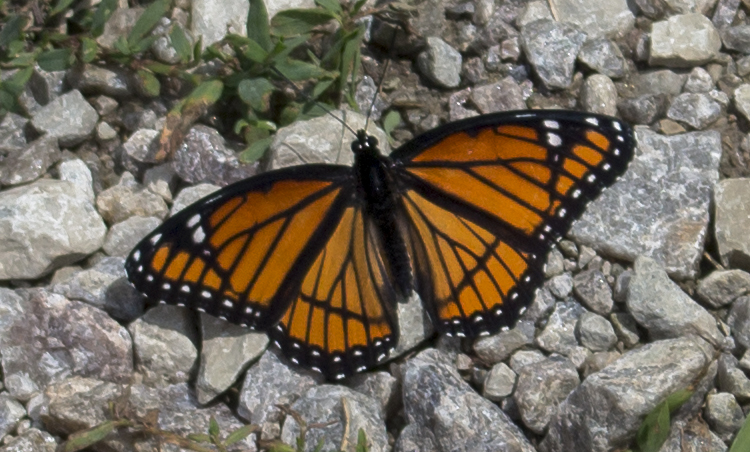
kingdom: Animalia
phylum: Arthropoda
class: Insecta
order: Lepidoptera
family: Nymphalidae
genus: Limenitis
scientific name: Limenitis archippus
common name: Viceroy
